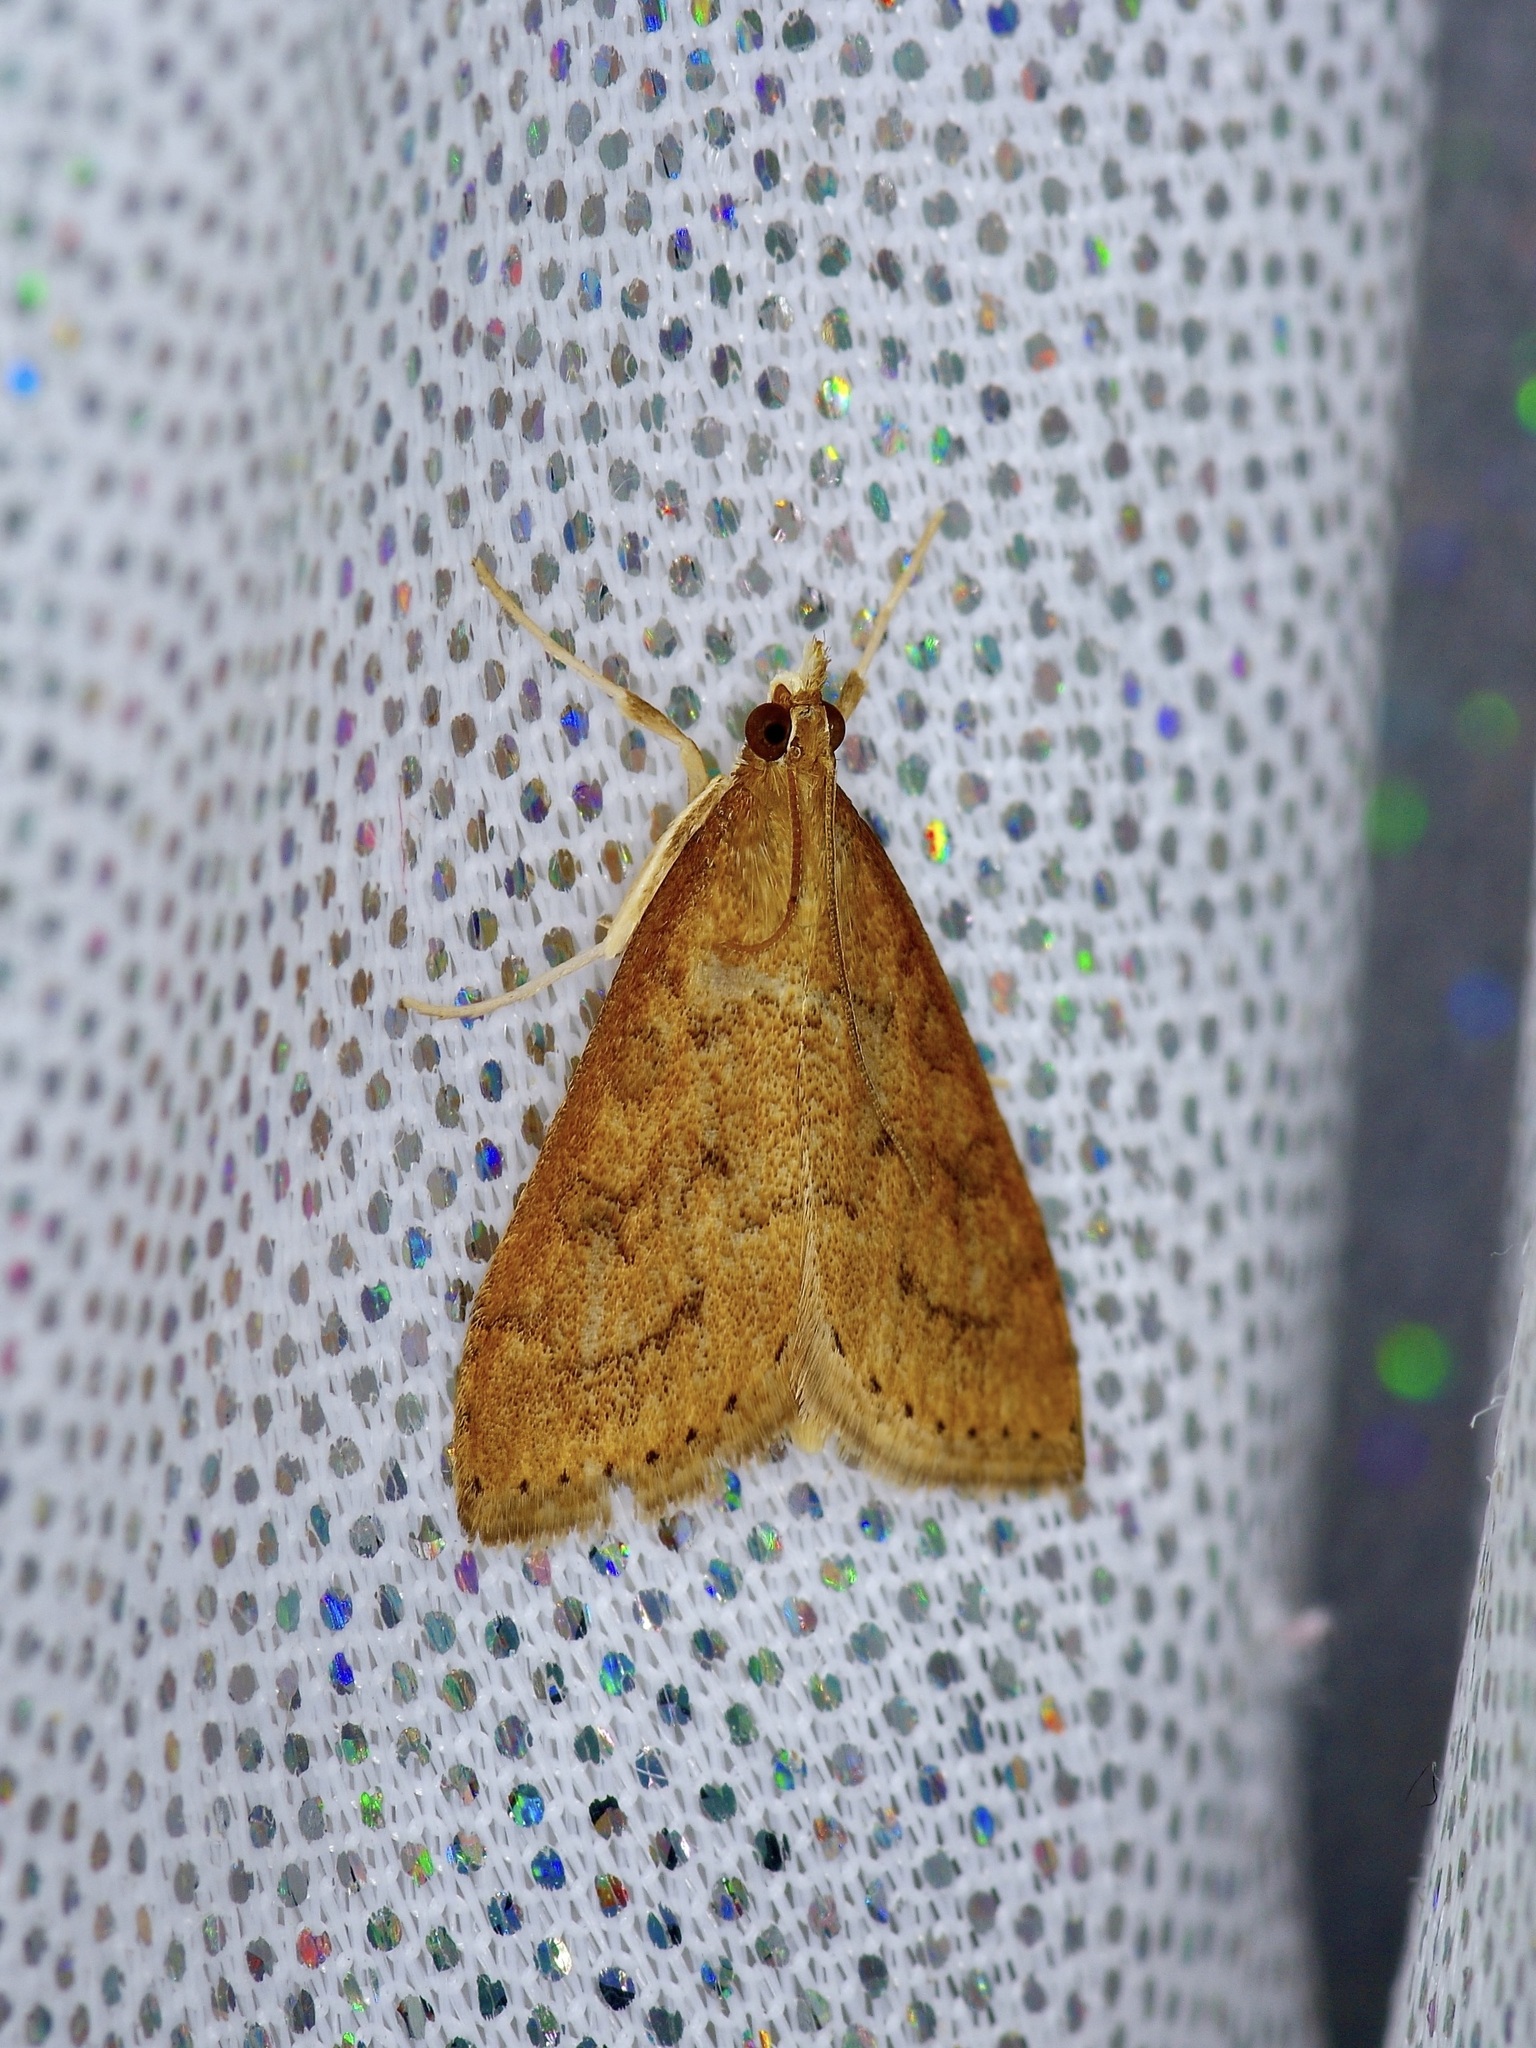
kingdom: Animalia
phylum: Arthropoda
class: Insecta
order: Lepidoptera
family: Crambidae
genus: Udea
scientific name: Udea rubigalis
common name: Celery leaftier moth
